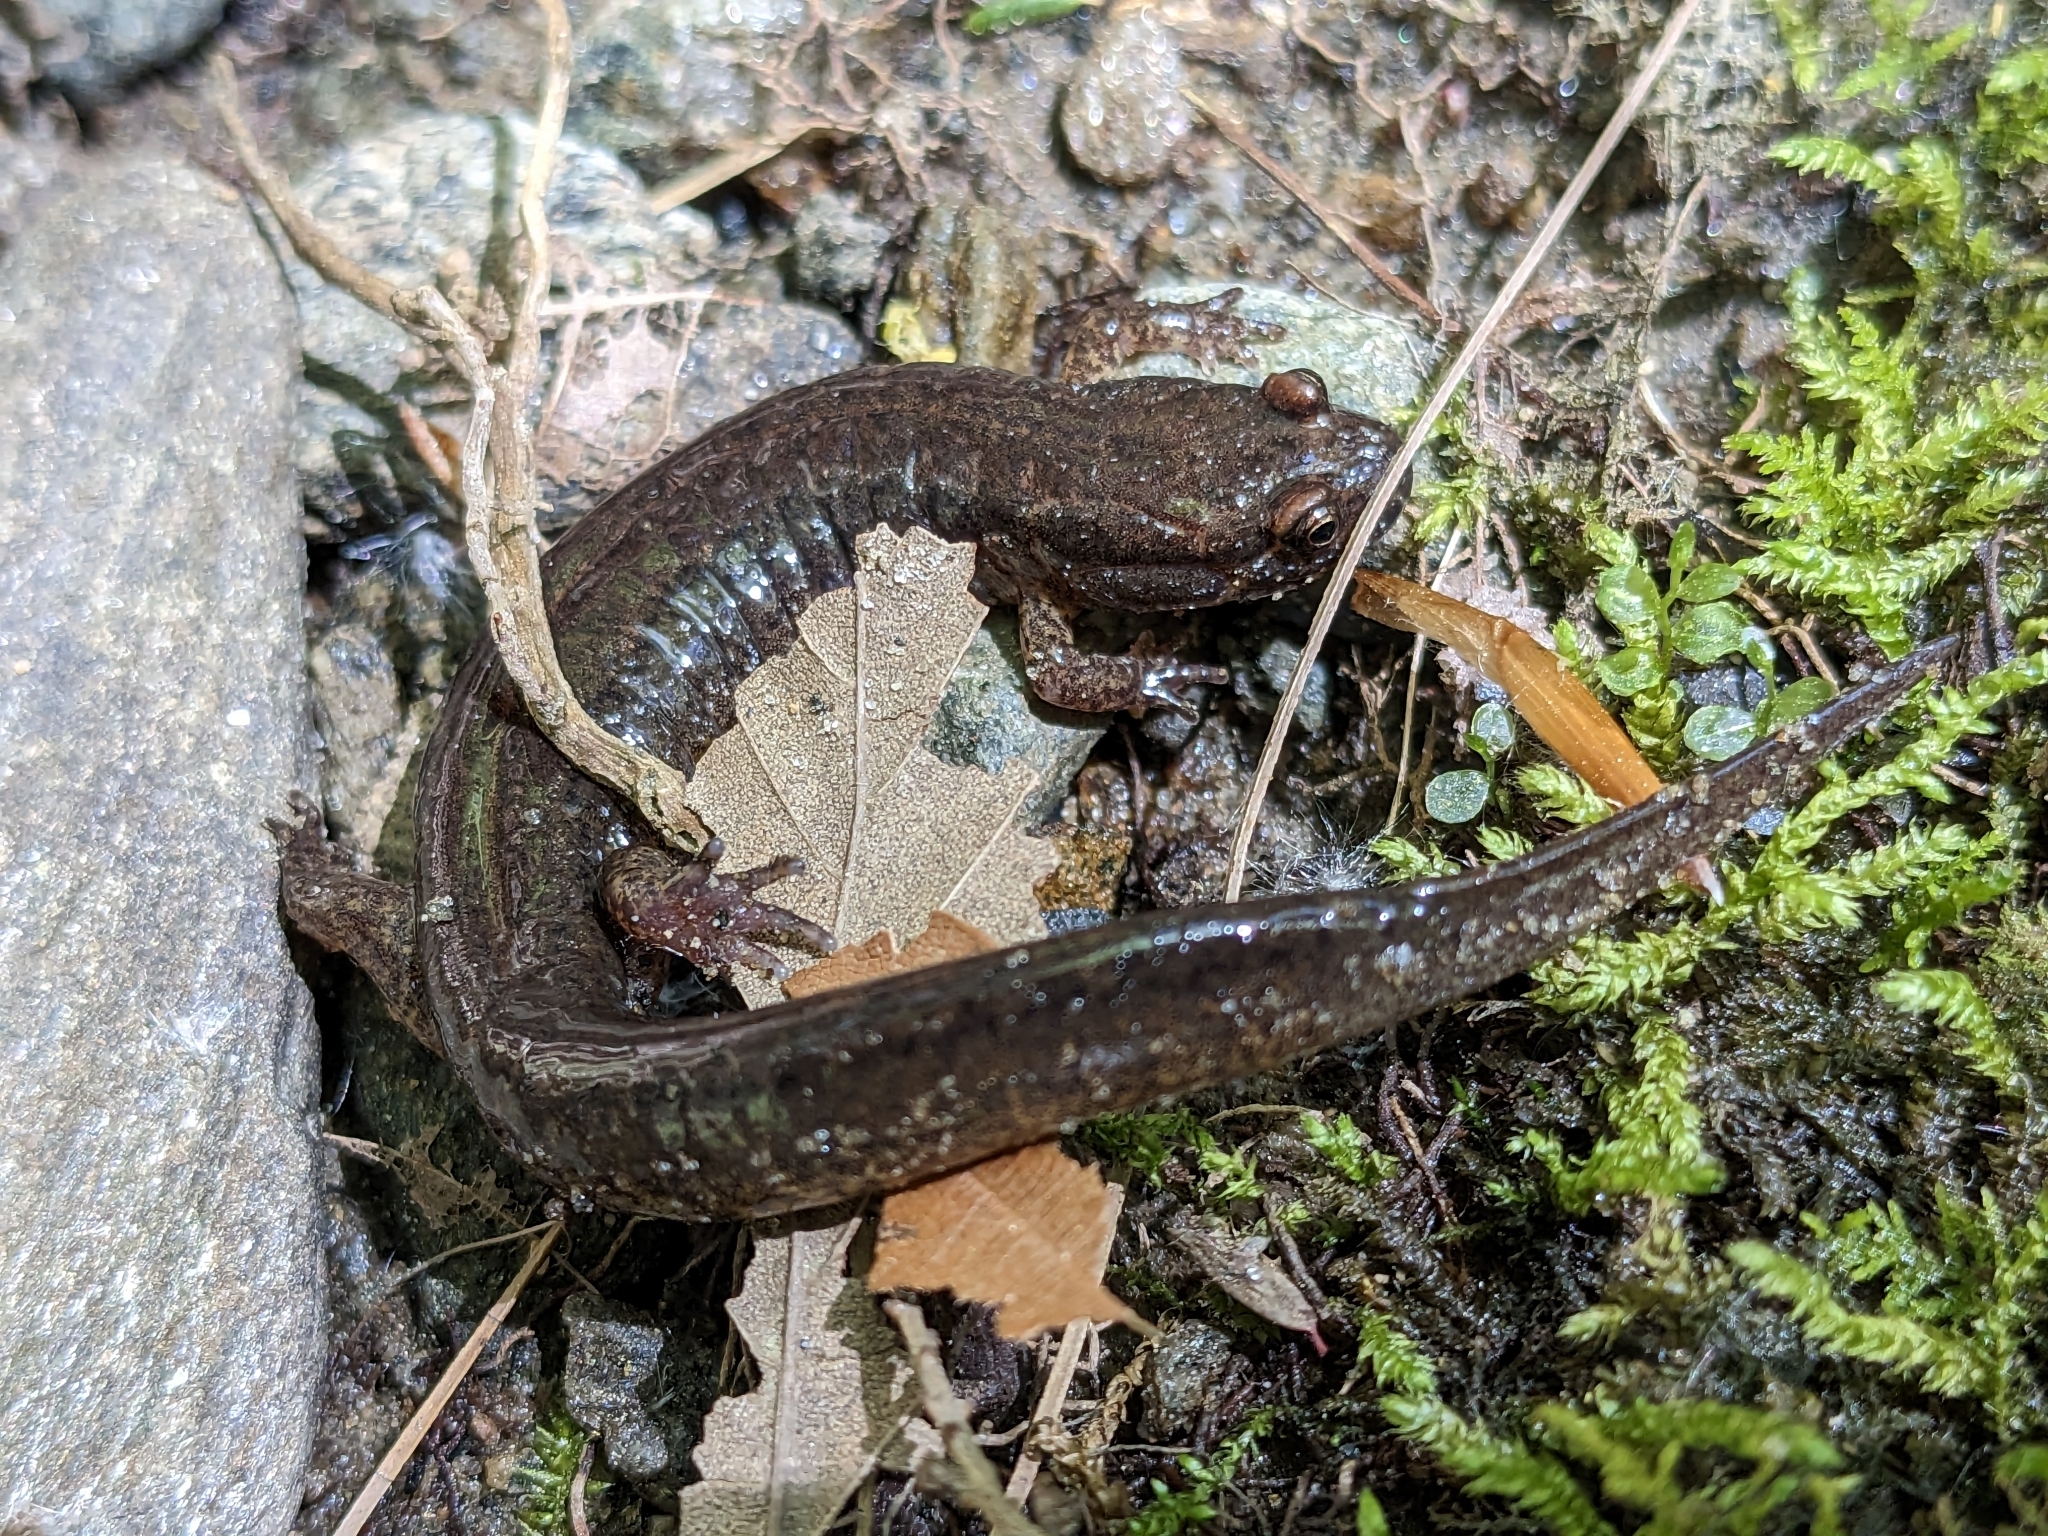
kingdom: Animalia
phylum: Chordata
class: Amphibia
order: Caudata
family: Plethodontidae
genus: Desmognathus
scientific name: Desmognathus fuscus
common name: Northern dusky salamander
